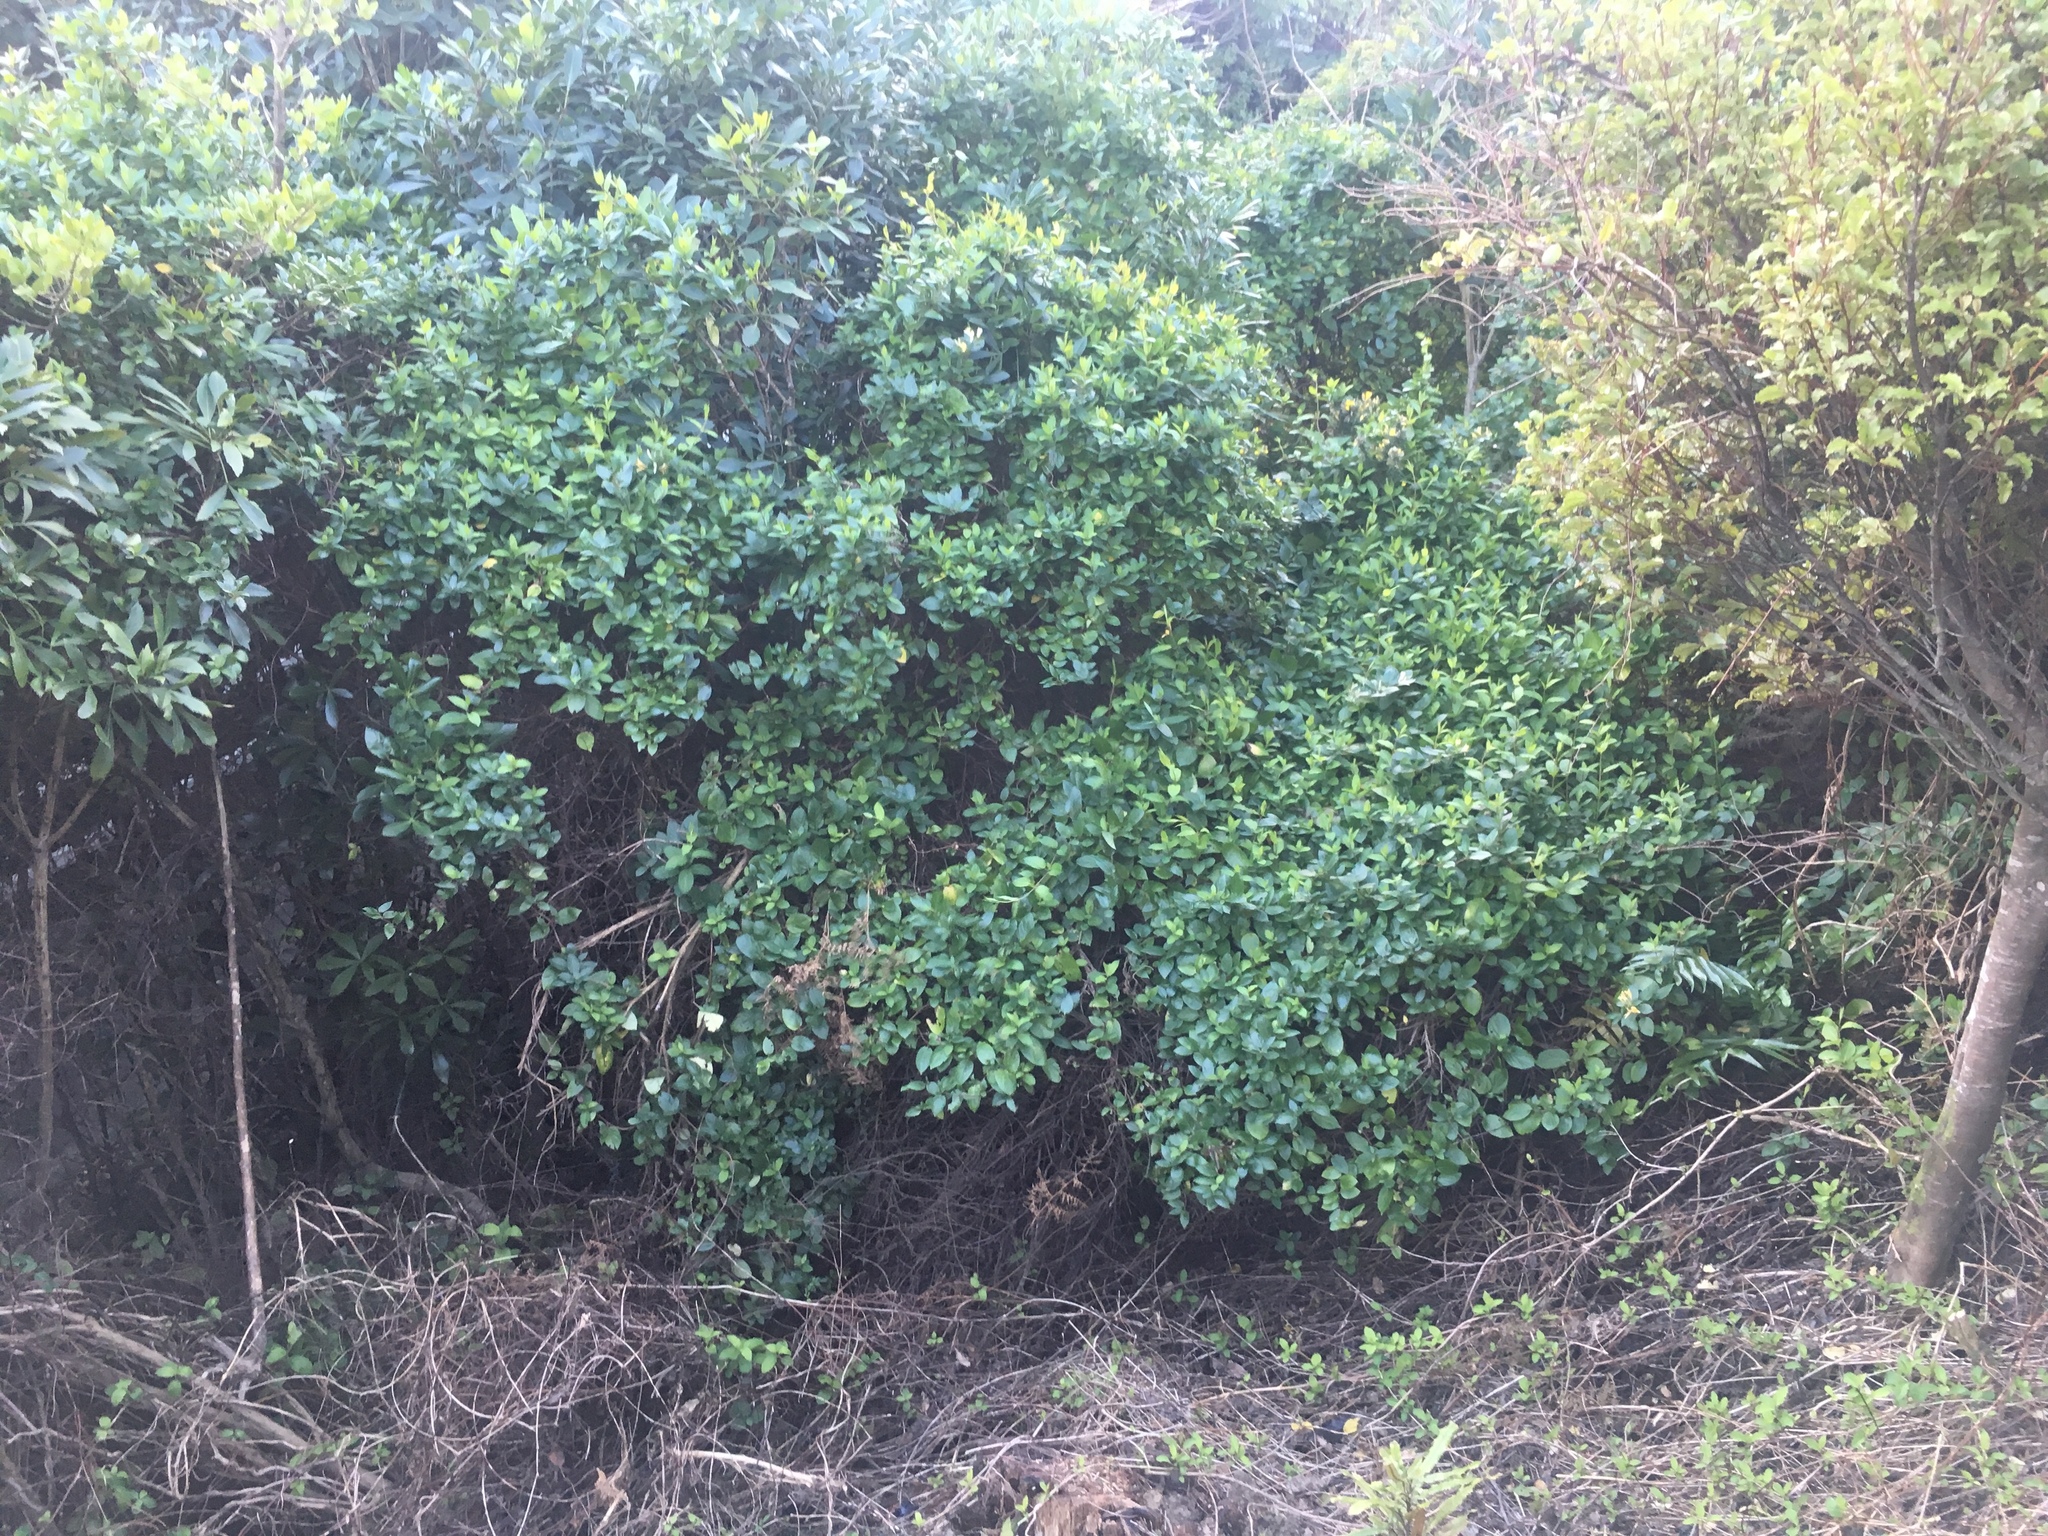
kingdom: Plantae
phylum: Tracheophyta
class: Magnoliopsida
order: Dipsacales
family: Caprifoliaceae
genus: Lonicera
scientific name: Lonicera japonica
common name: Japanese honeysuckle
